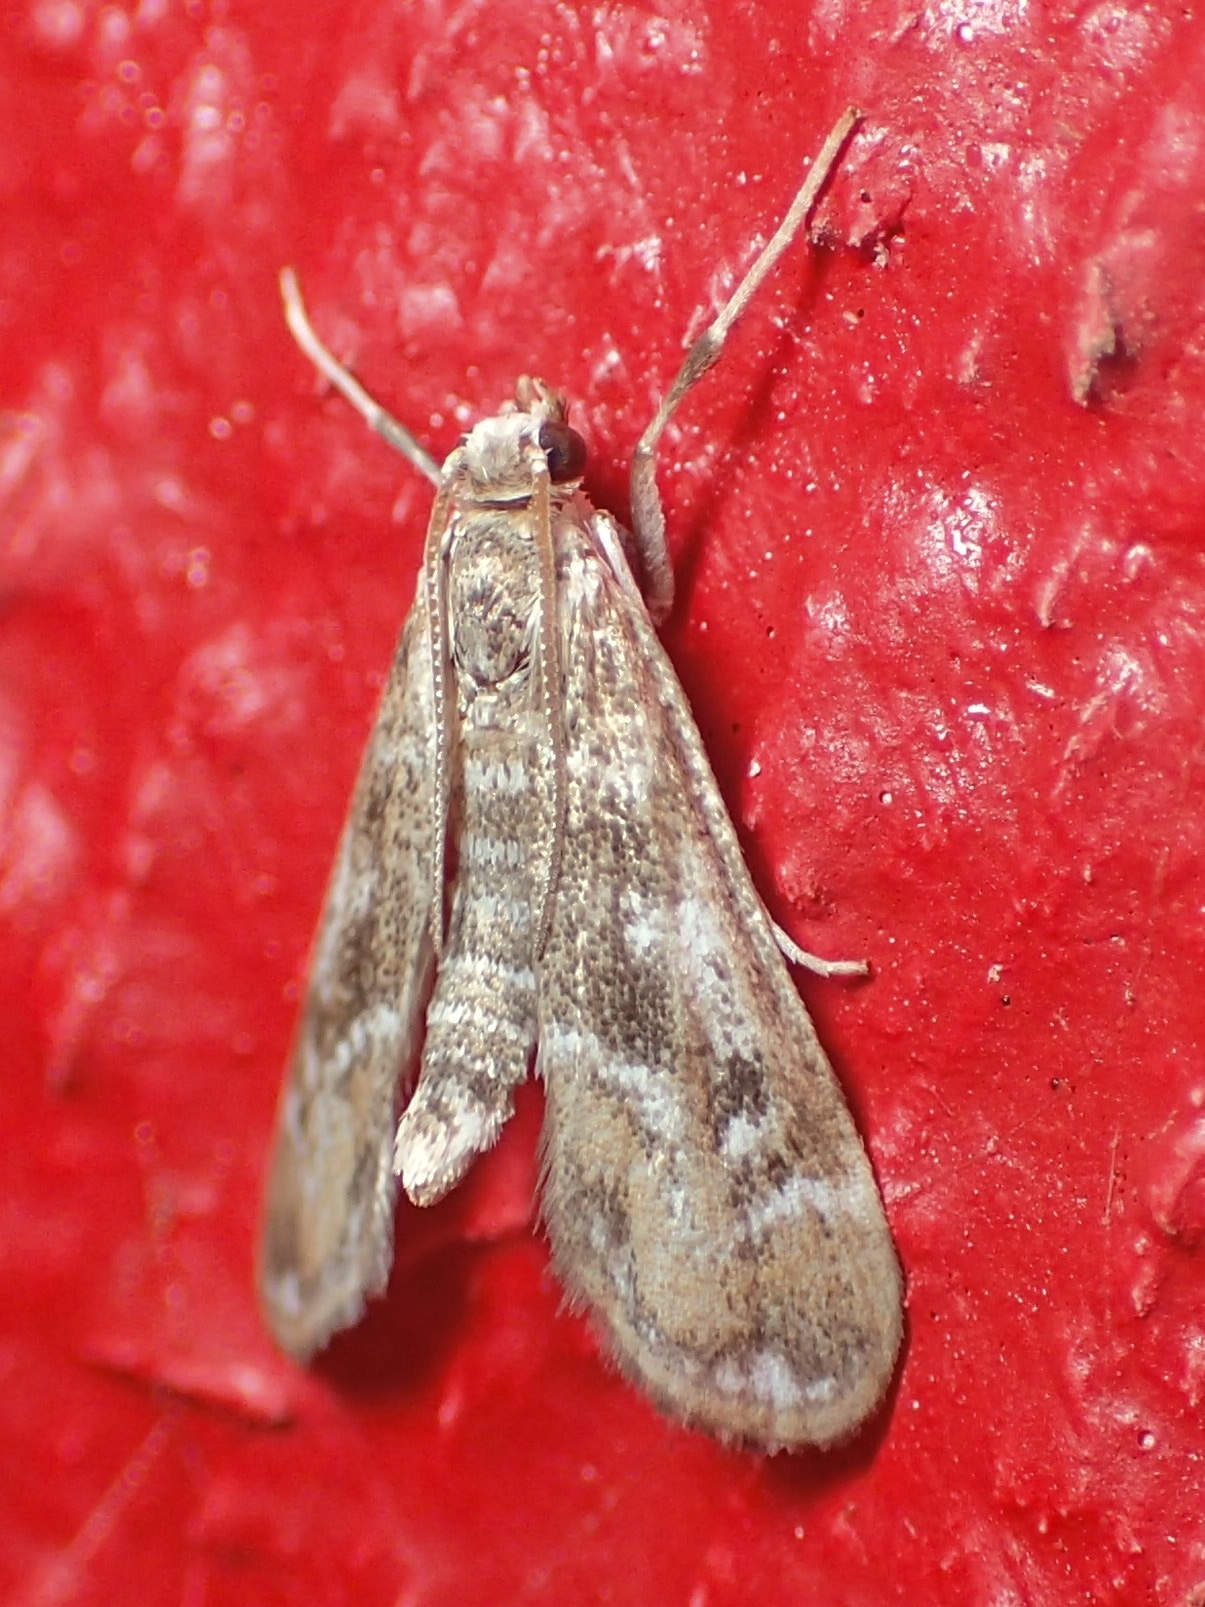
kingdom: Animalia
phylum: Arthropoda
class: Insecta
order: Lepidoptera
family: Crambidae
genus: Hygraula
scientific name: Hygraula nitens
